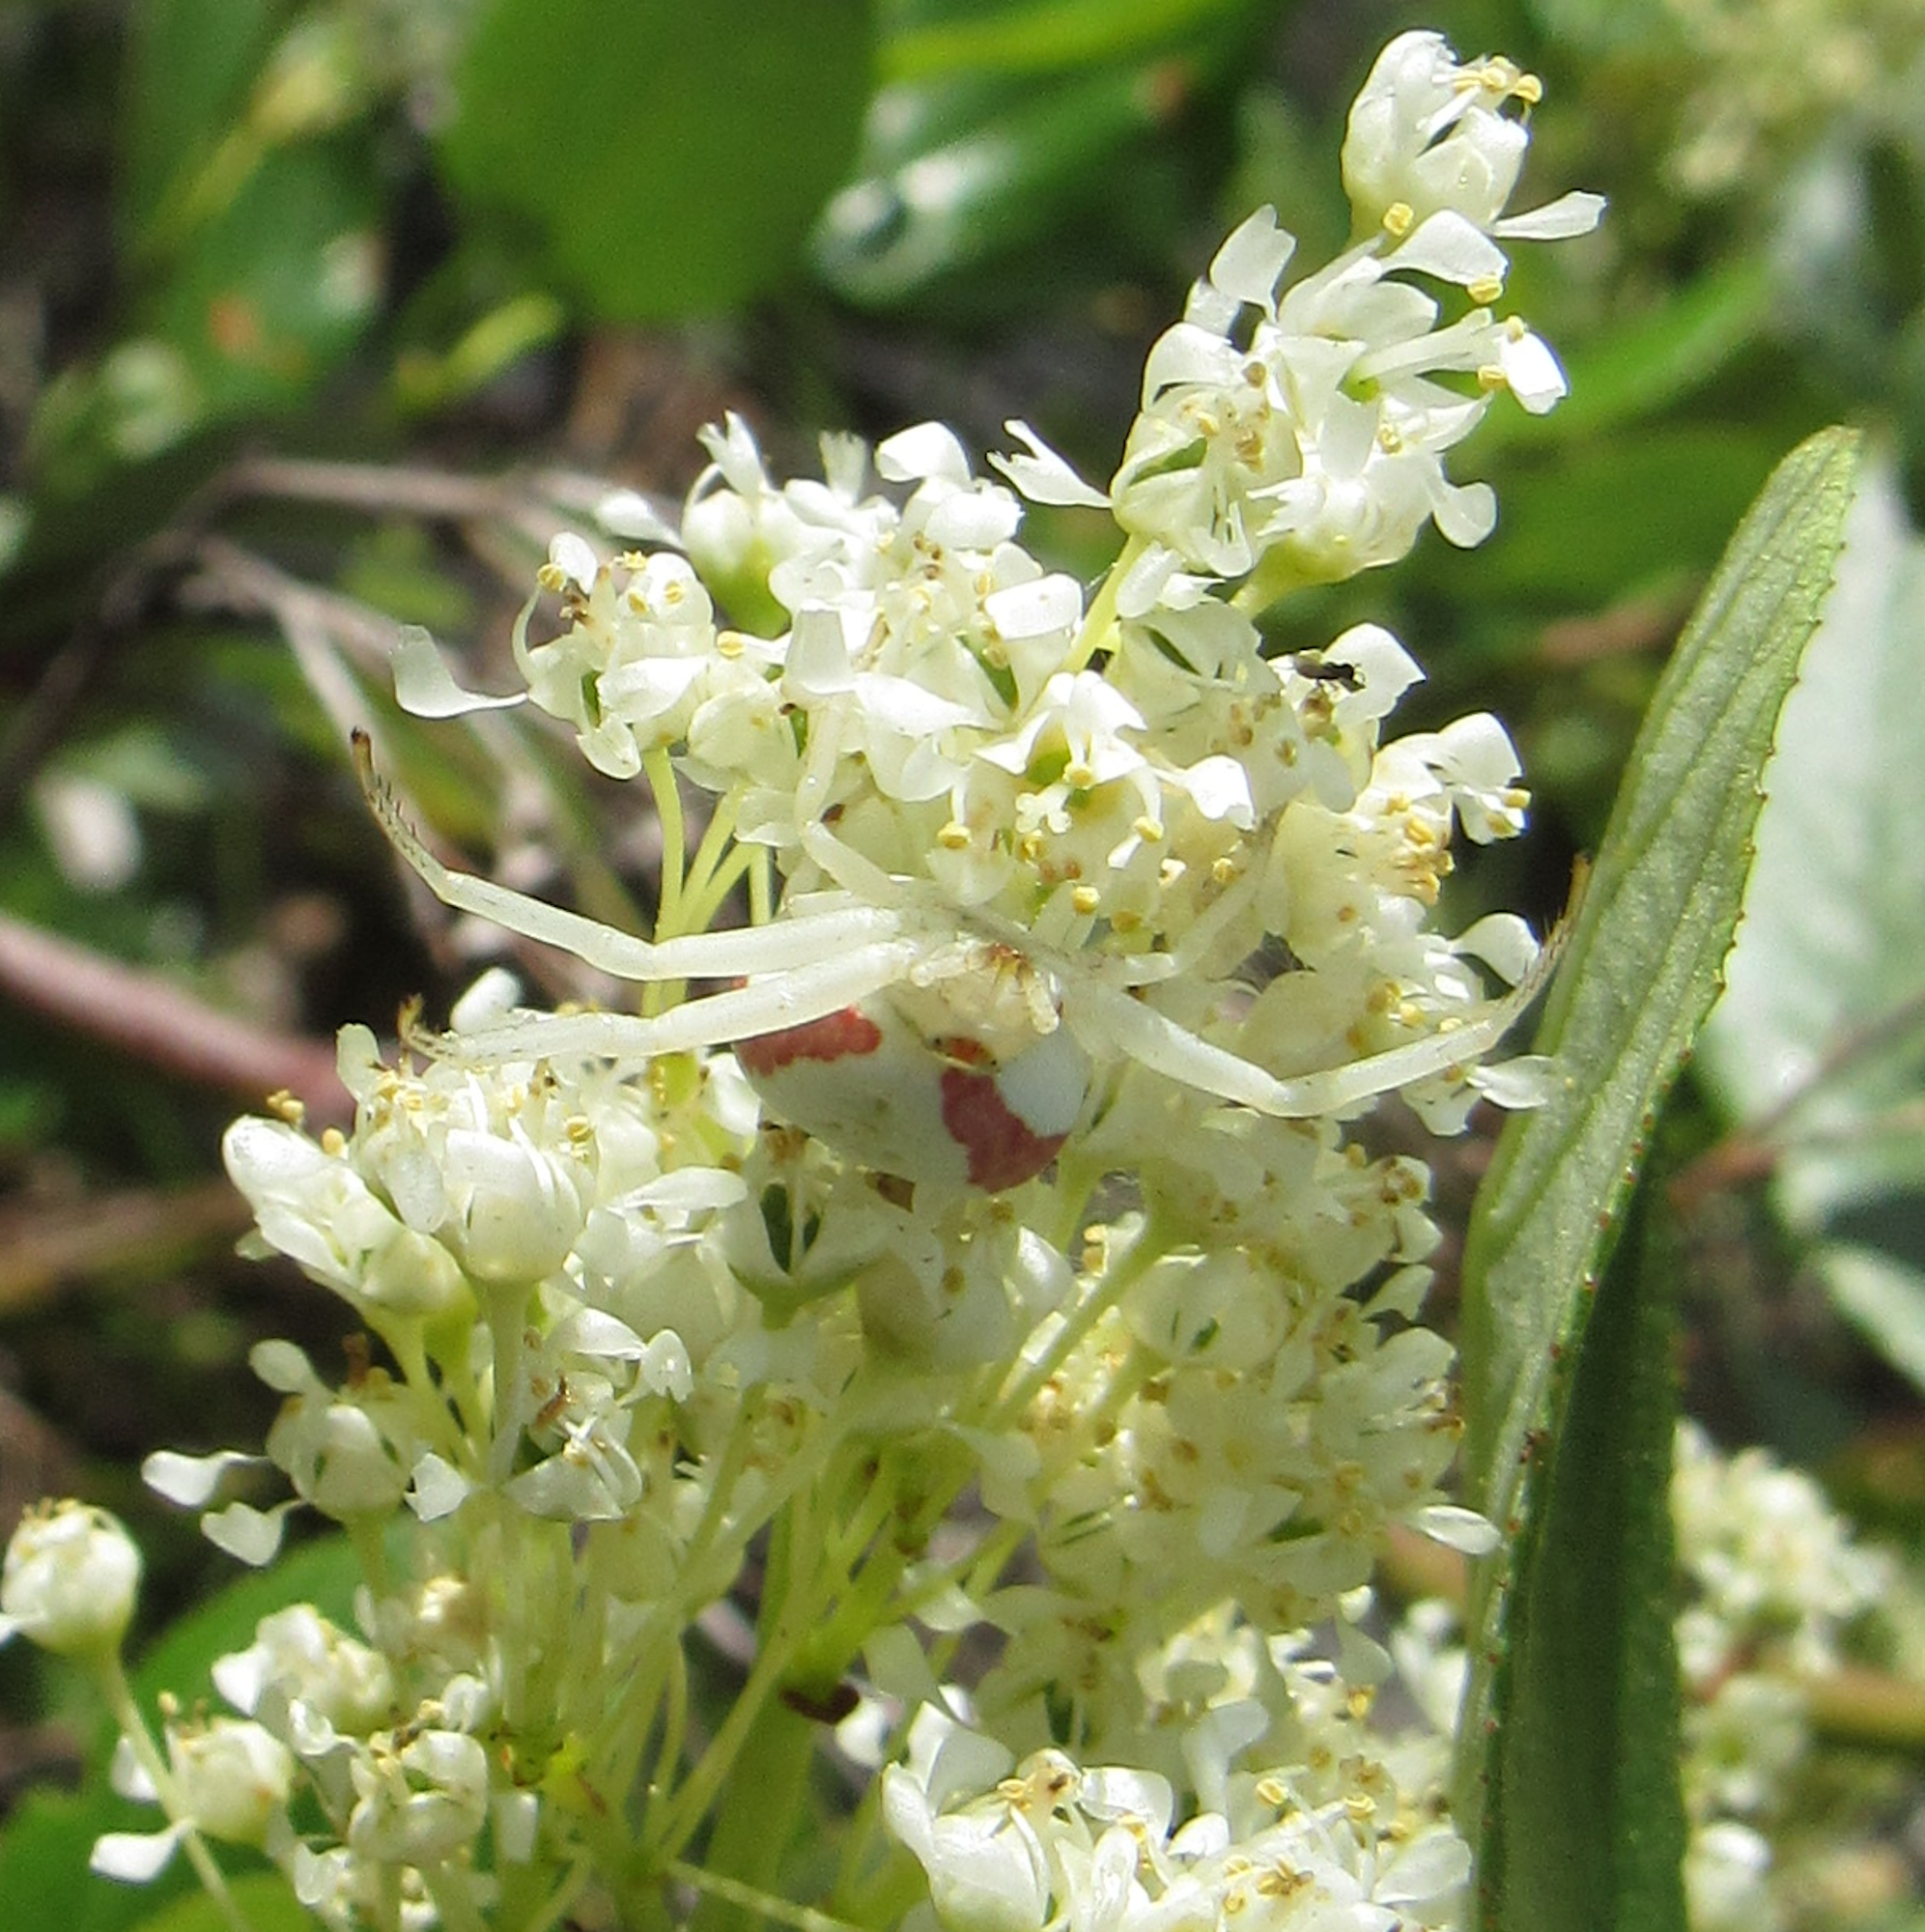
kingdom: Animalia
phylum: Arthropoda
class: Arachnida
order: Araneae
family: Thomisidae
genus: Misumena
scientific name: Misumena vatia
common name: Goldenrod crab spider
